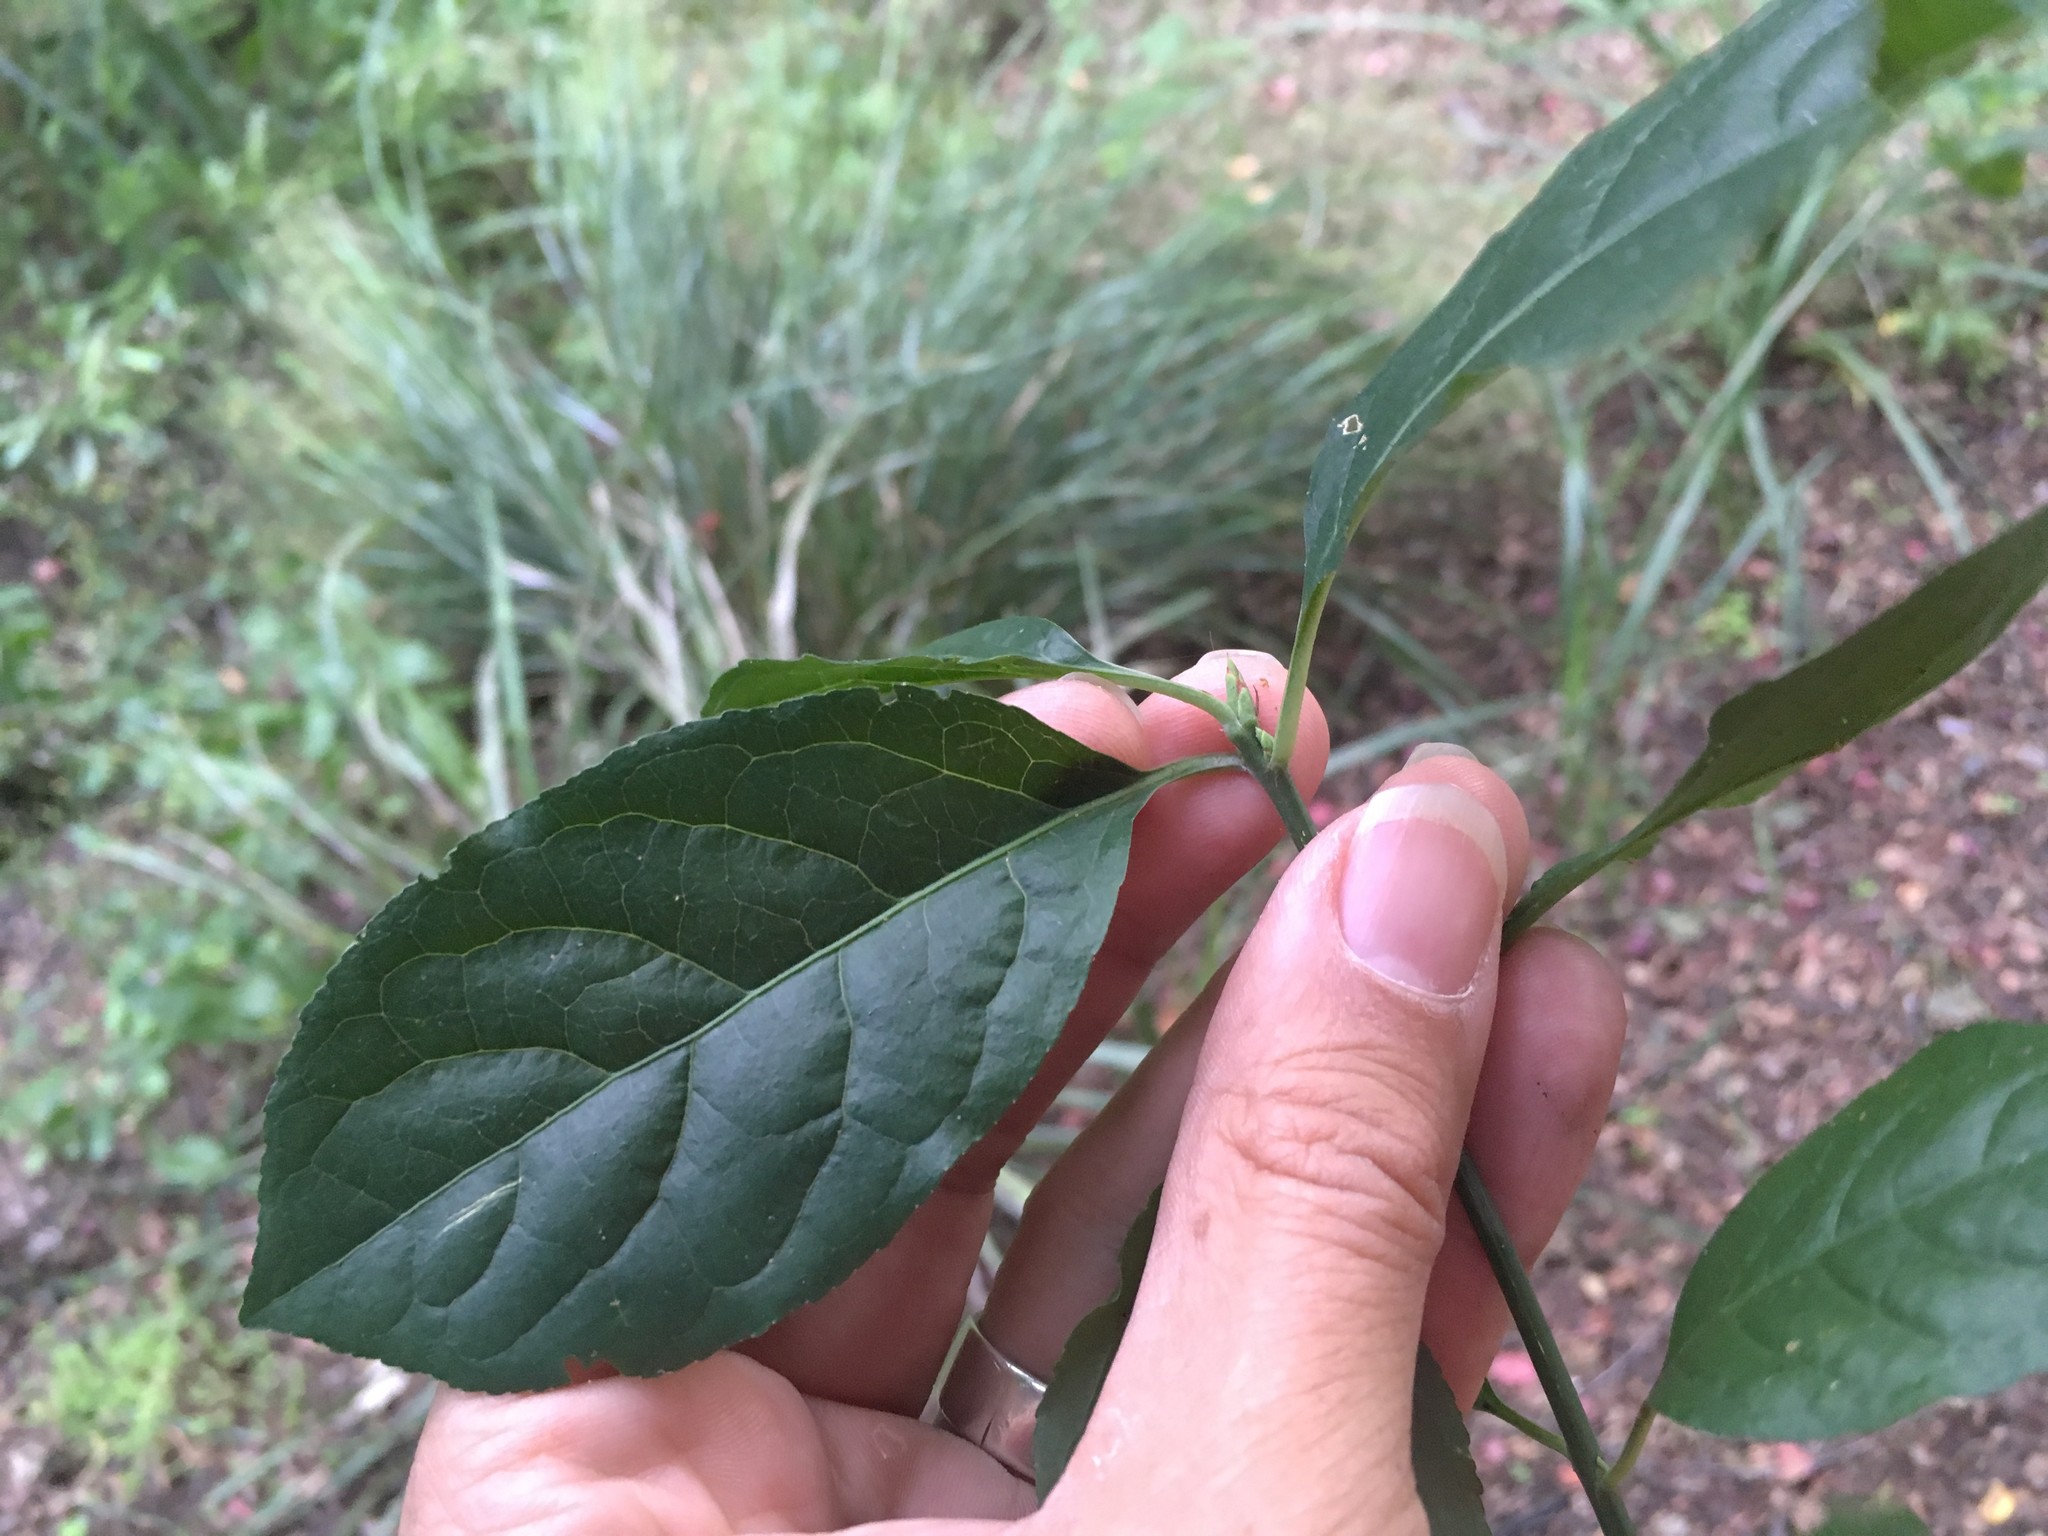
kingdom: Plantae
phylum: Tracheophyta
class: Magnoliopsida
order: Celastrales
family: Celastraceae
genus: Euonymus
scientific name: Euonymus europaeus
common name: Spindle
